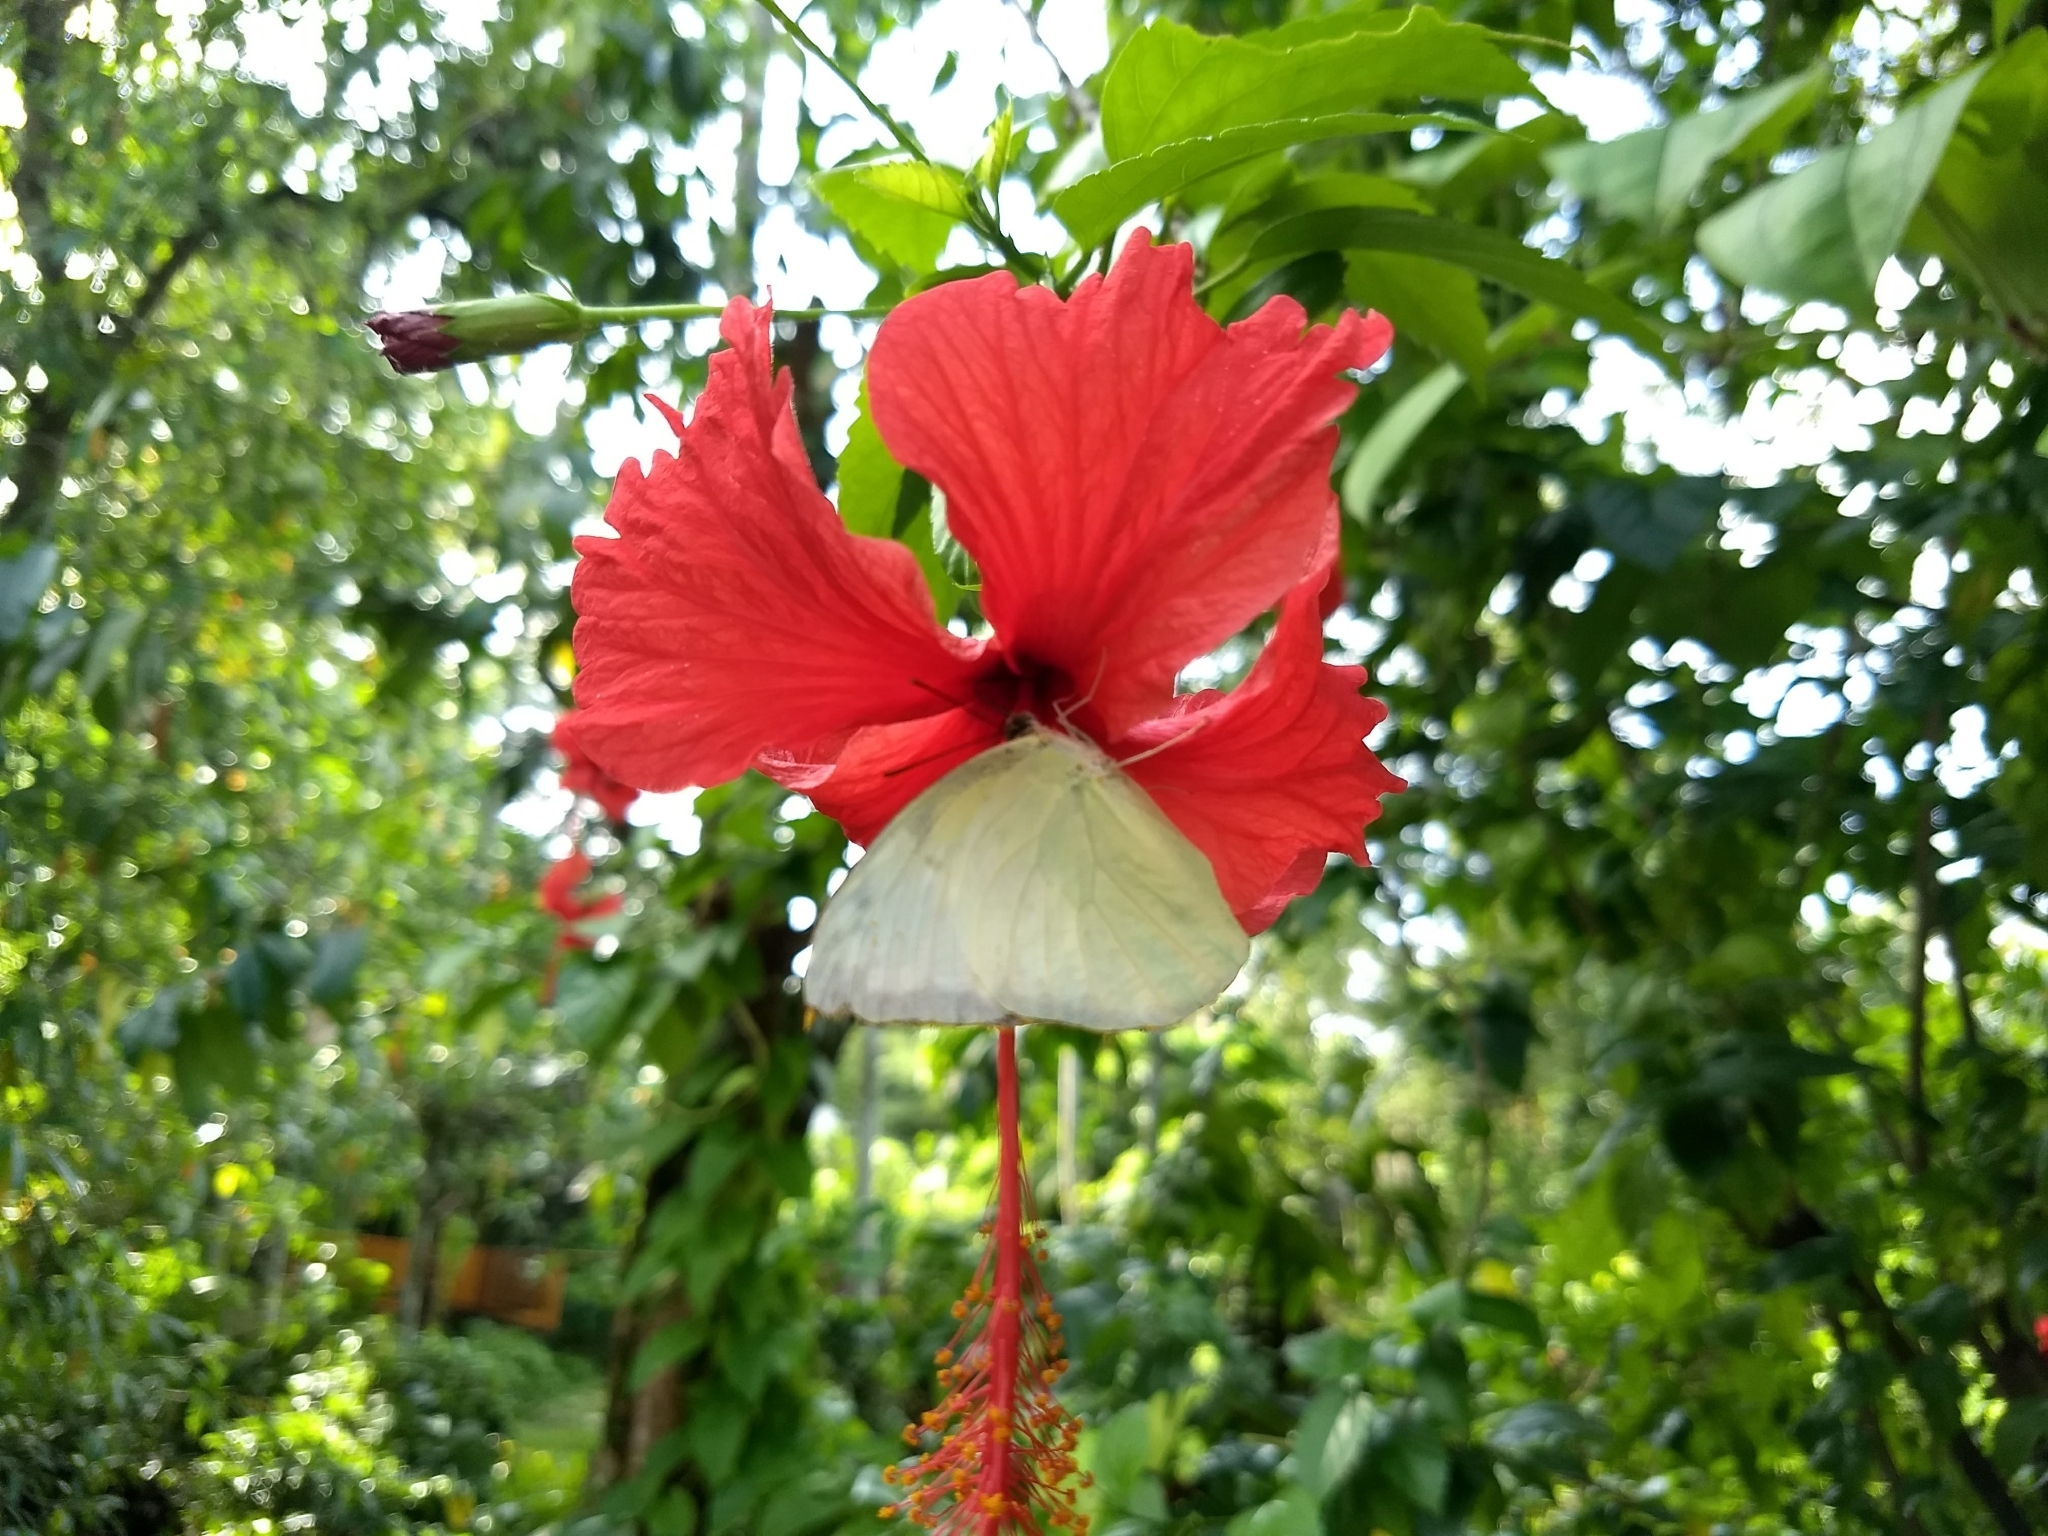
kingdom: Animalia
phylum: Arthropoda
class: Insecta
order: Lepidoptera
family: Pieridae
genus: Catopsilia
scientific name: Catopsilia pomona
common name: Common emigrant
